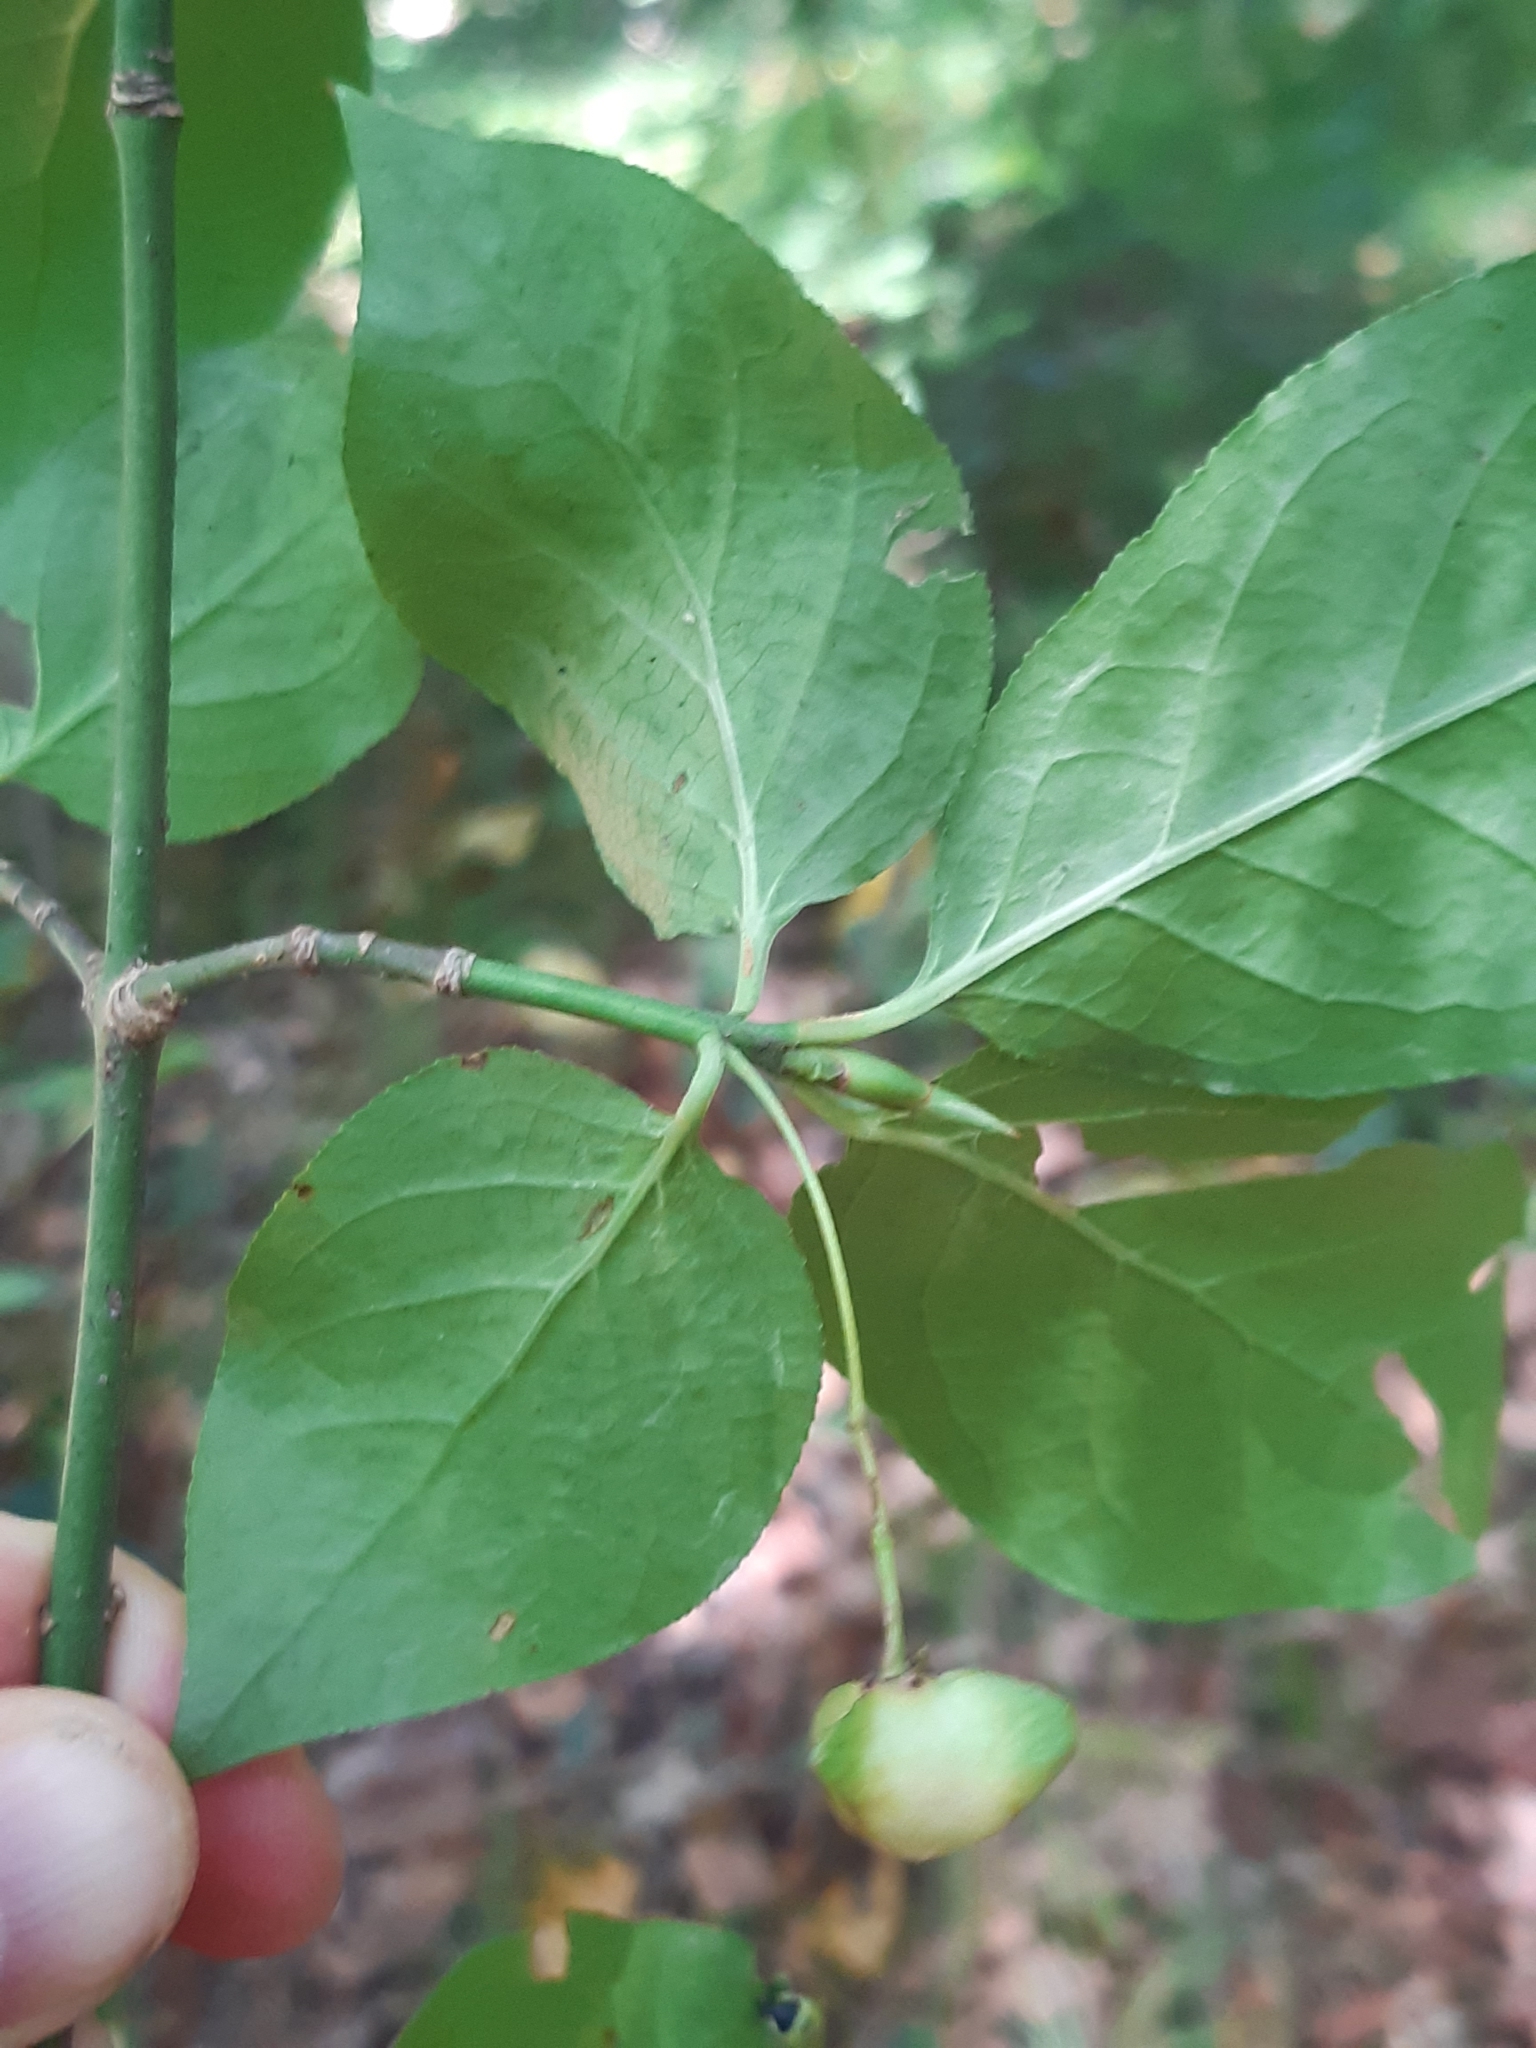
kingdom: Plantae
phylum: Tracheophyta
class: Magnoliopsida
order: Celastrales
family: Celastraceae
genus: Euonymus
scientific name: Euonymus latifolius
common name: Large-leaved spindle
